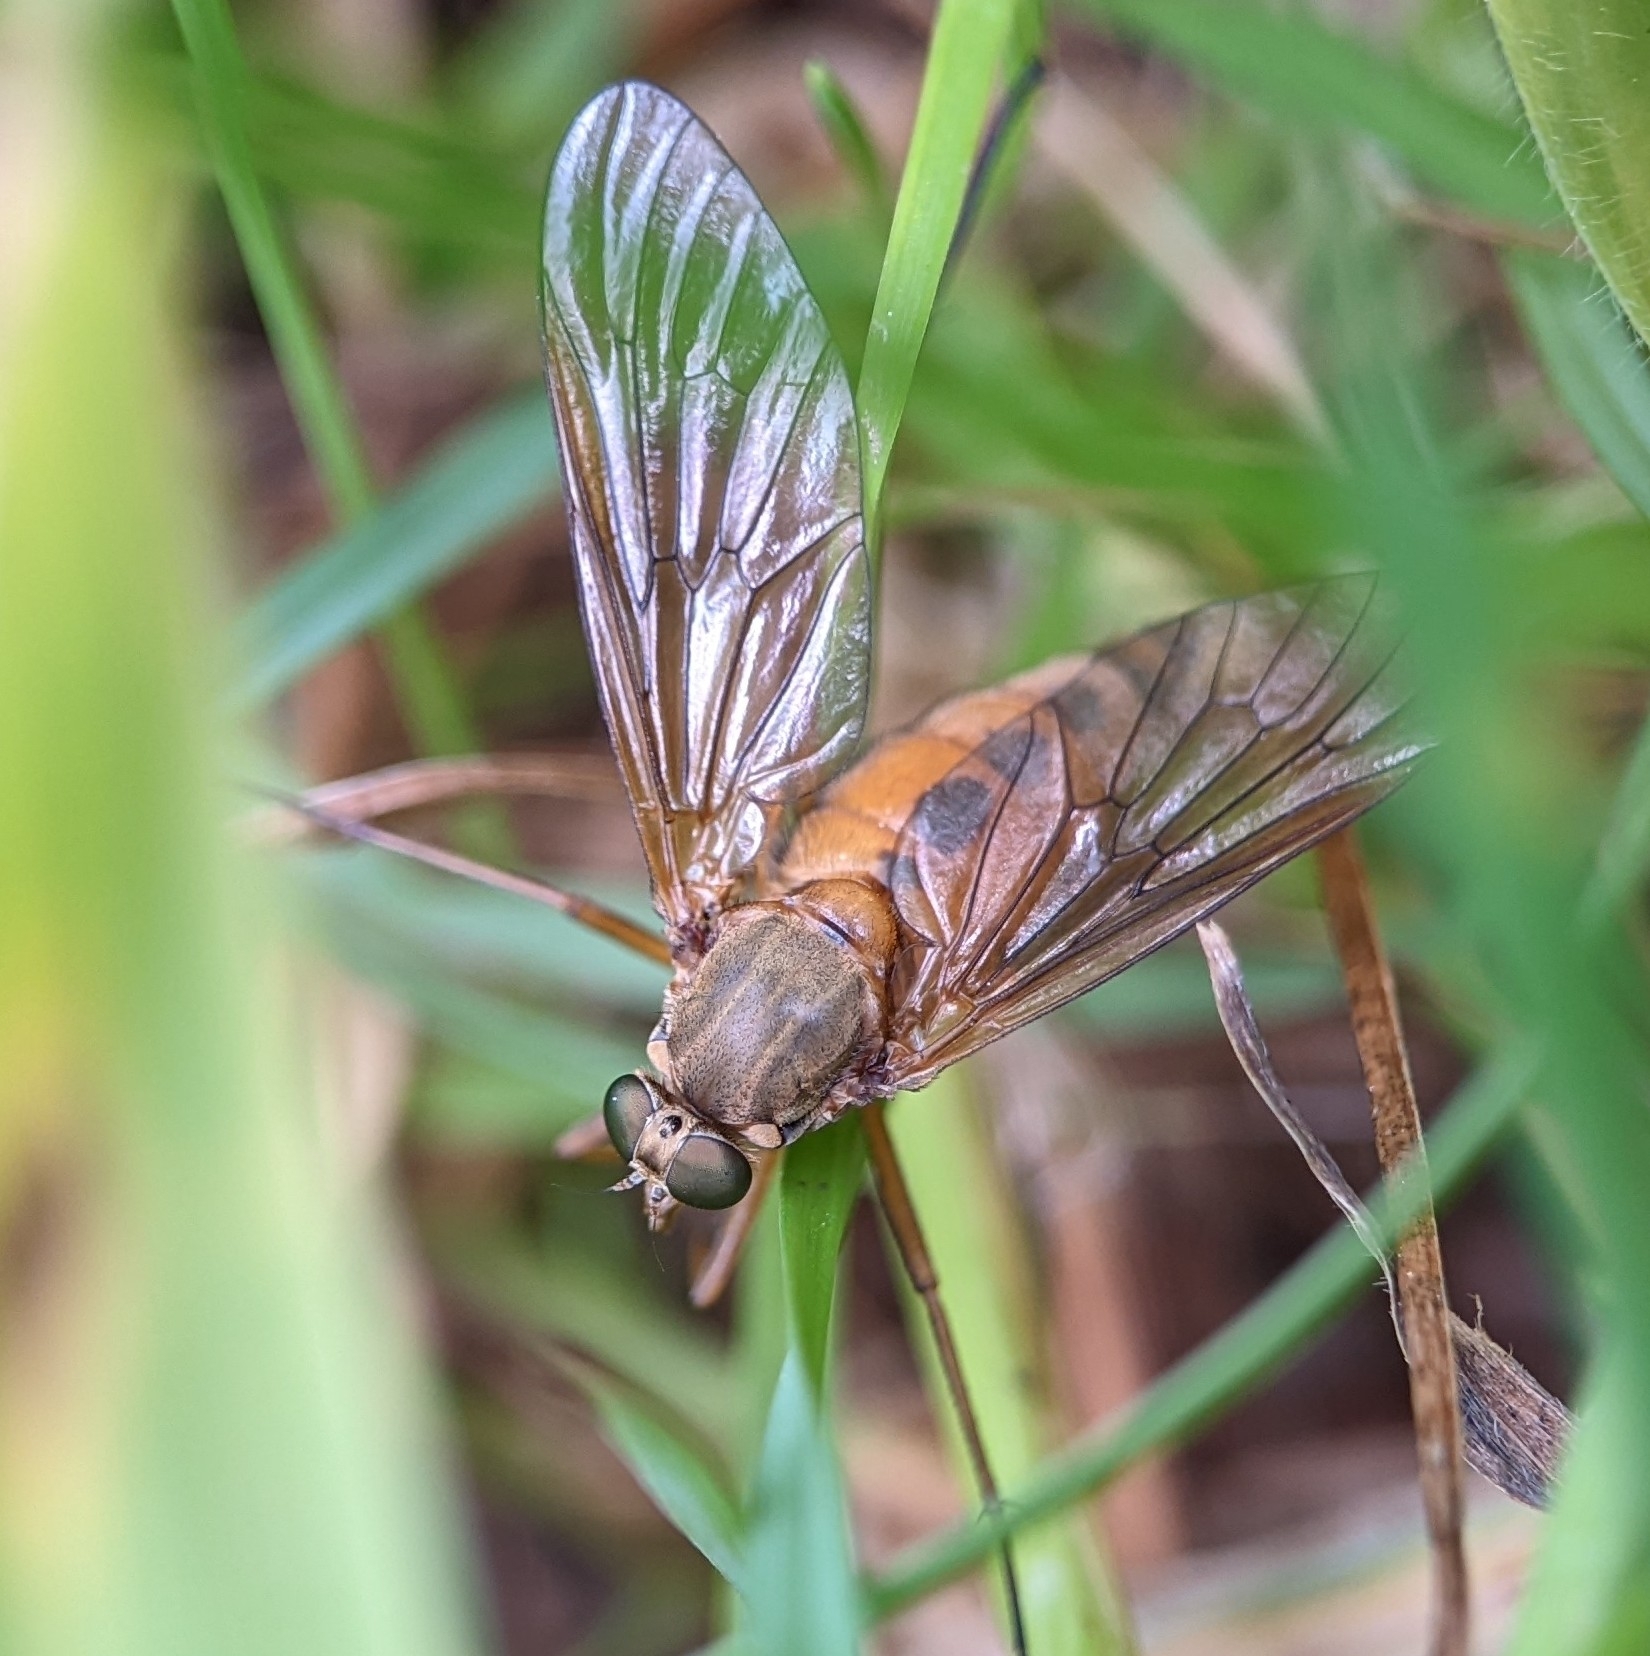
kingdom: Animalia
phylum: Arthropoda
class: Insecta
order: Diptera
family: Rhagionidae
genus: Rhagio
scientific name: Rhagio tringaria
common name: Marsh snipefly
